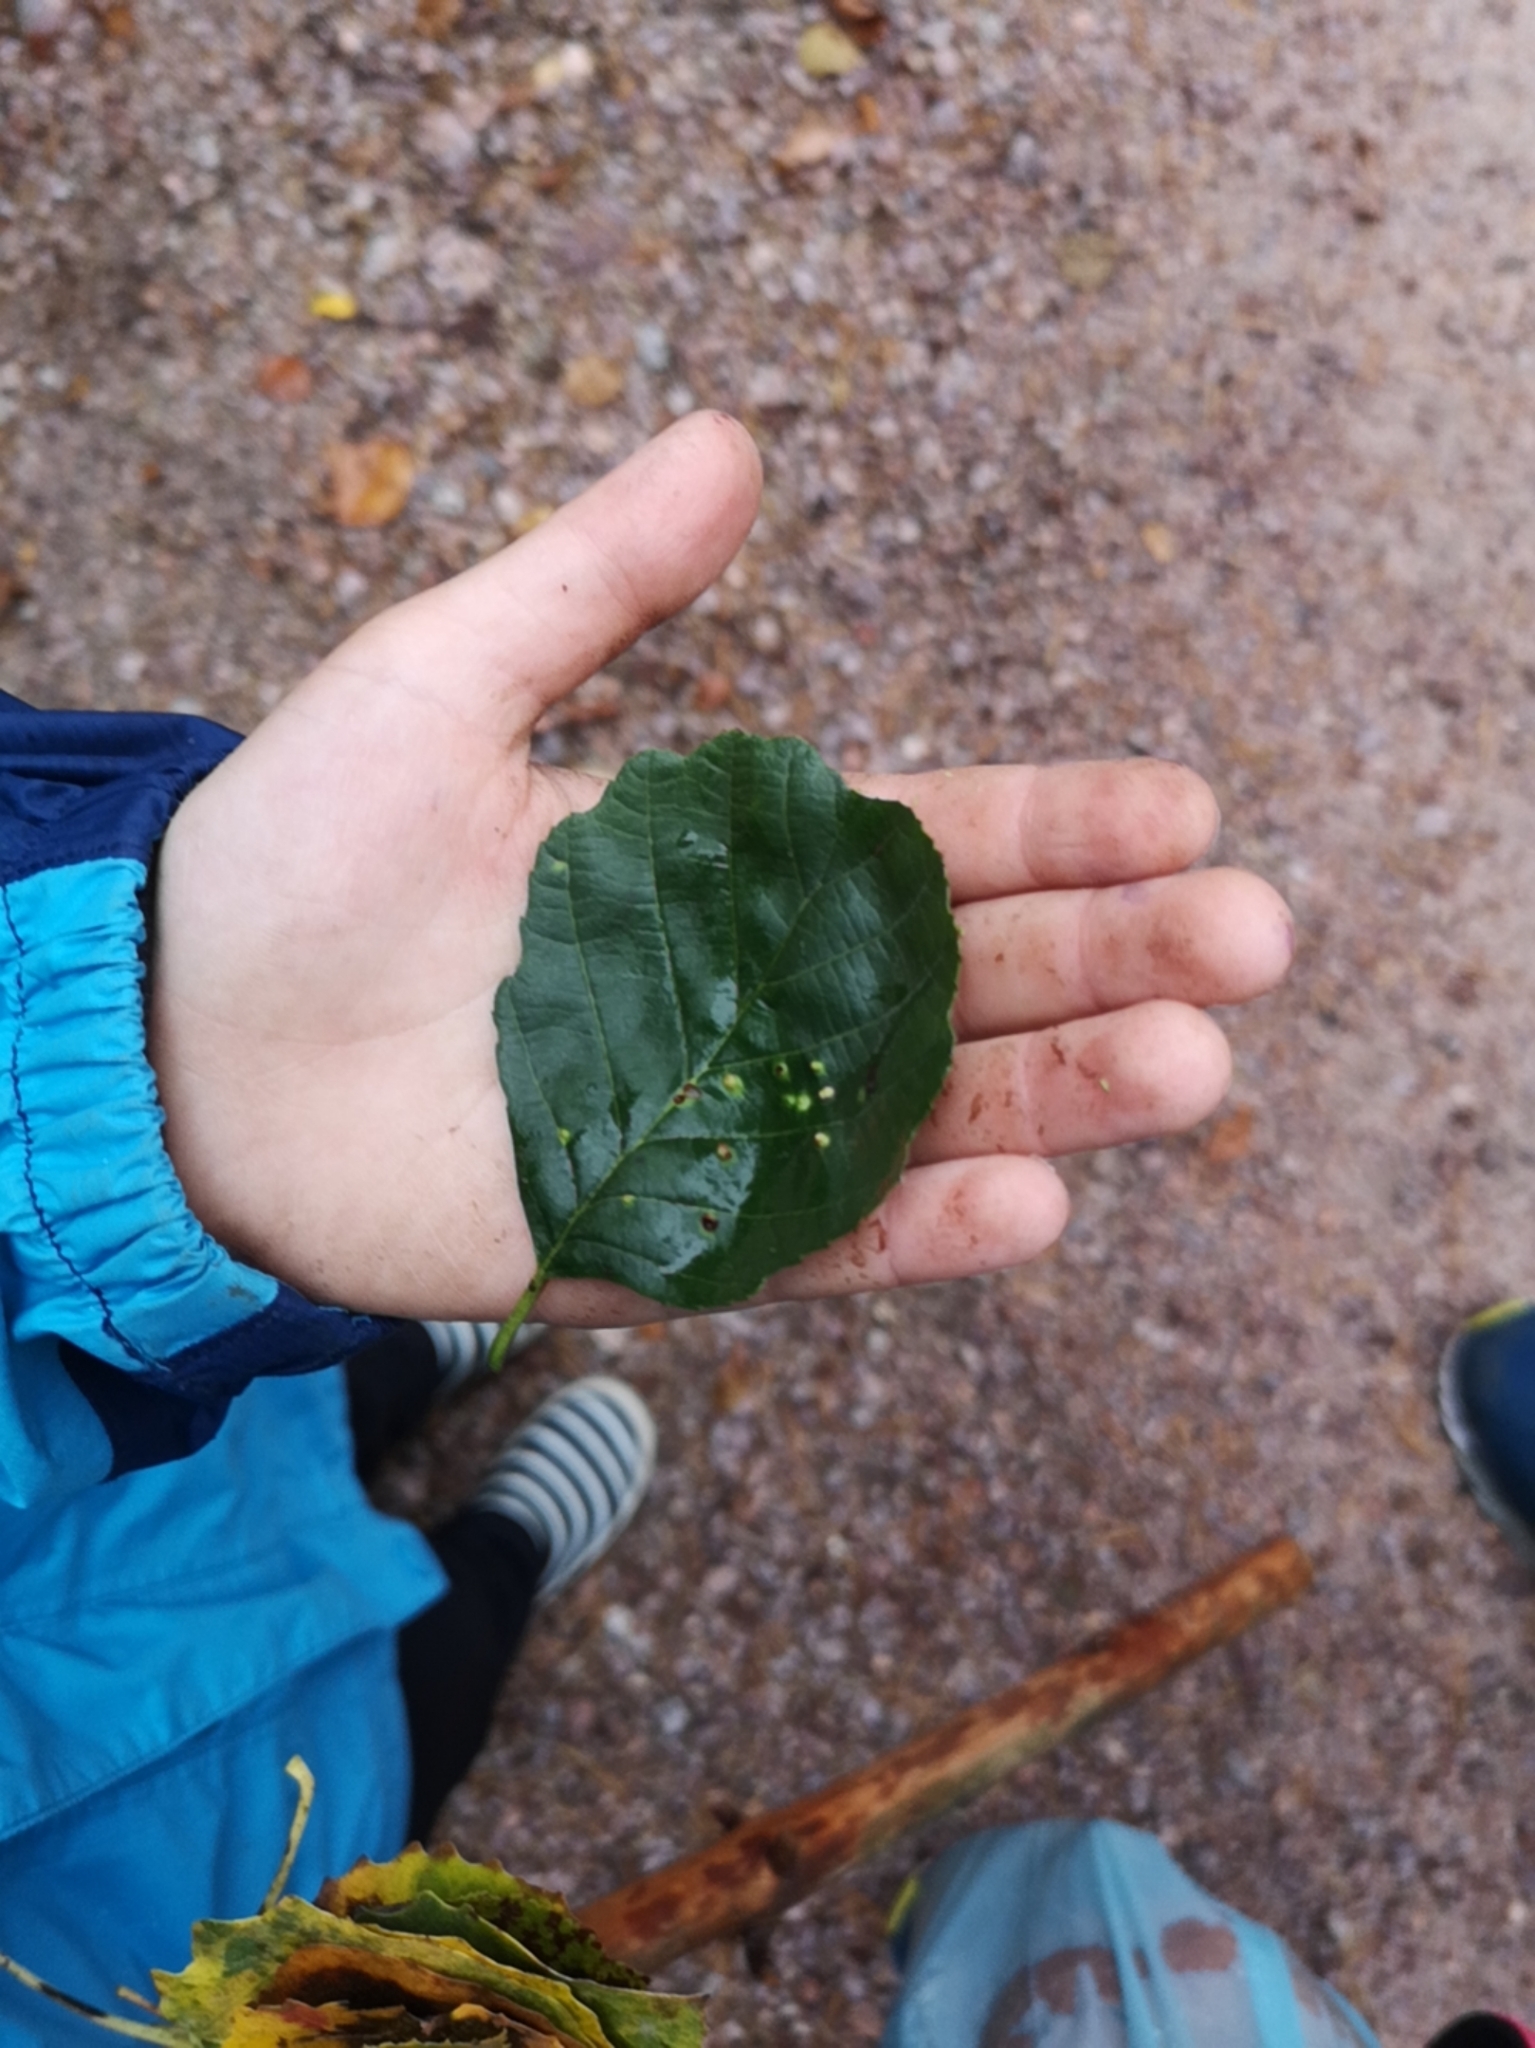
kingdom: Plantae
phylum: Tracheophyta
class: Magnoliopsida
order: Fagales
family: Betulaceae
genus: Alnus
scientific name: Alnus glutinosa
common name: Black alder
